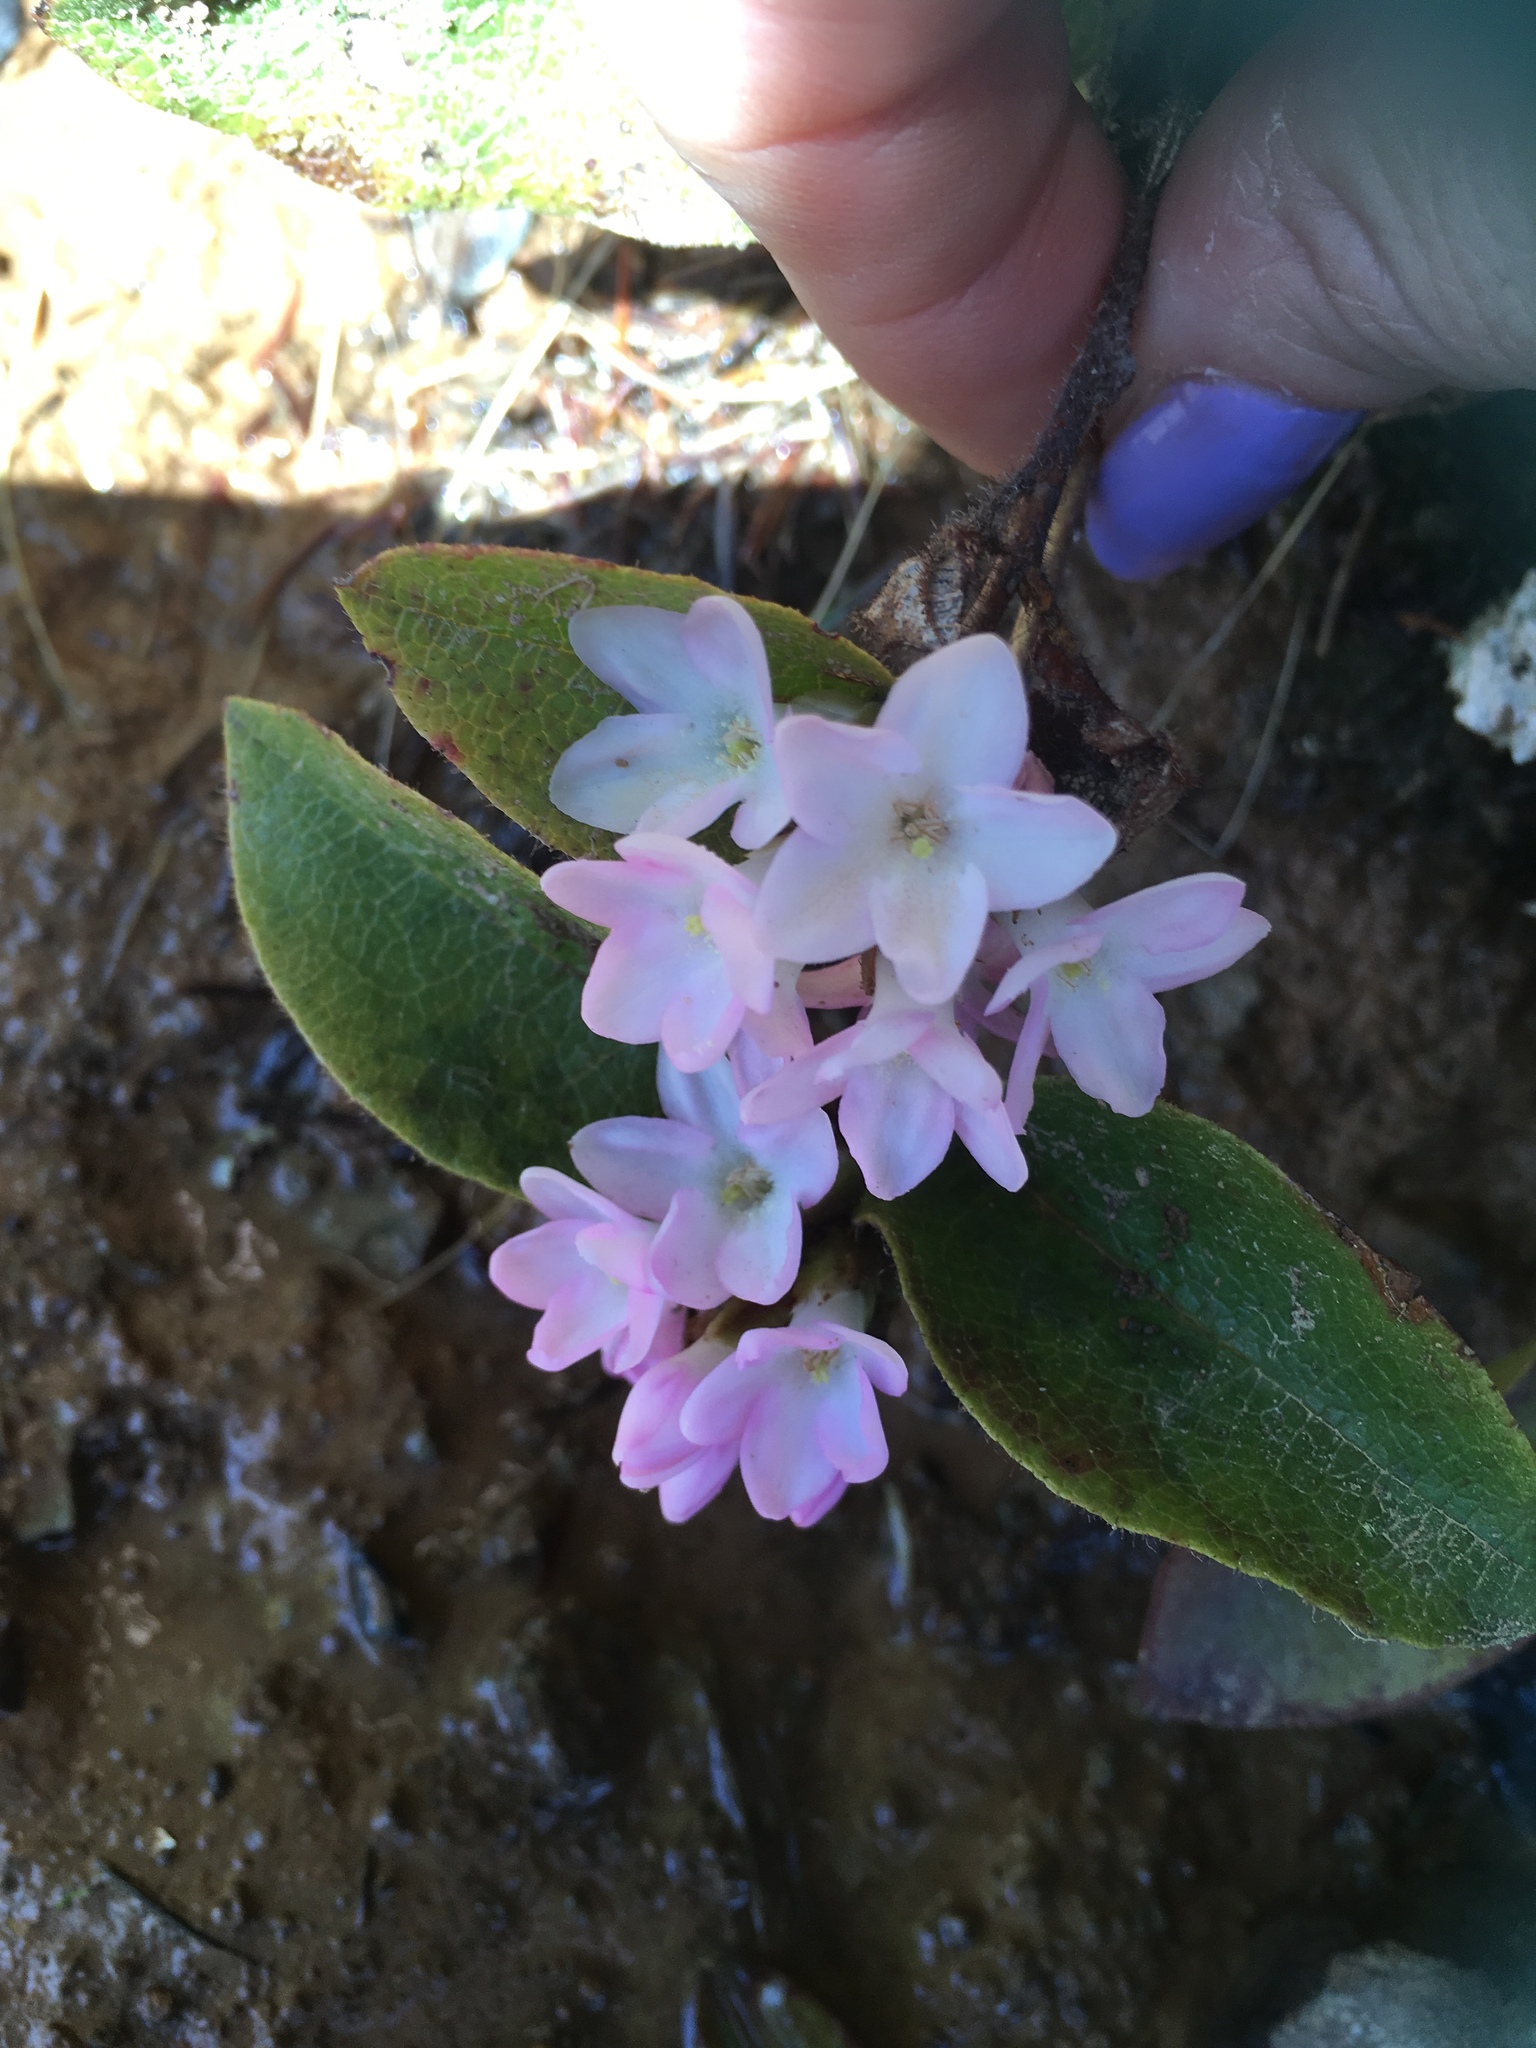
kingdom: Plantae
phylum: Tracheophyta
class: Magnoliopsida
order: Ericales
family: Ericaceae
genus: Epigaea
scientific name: Epigaea repens
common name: Gravelroot
